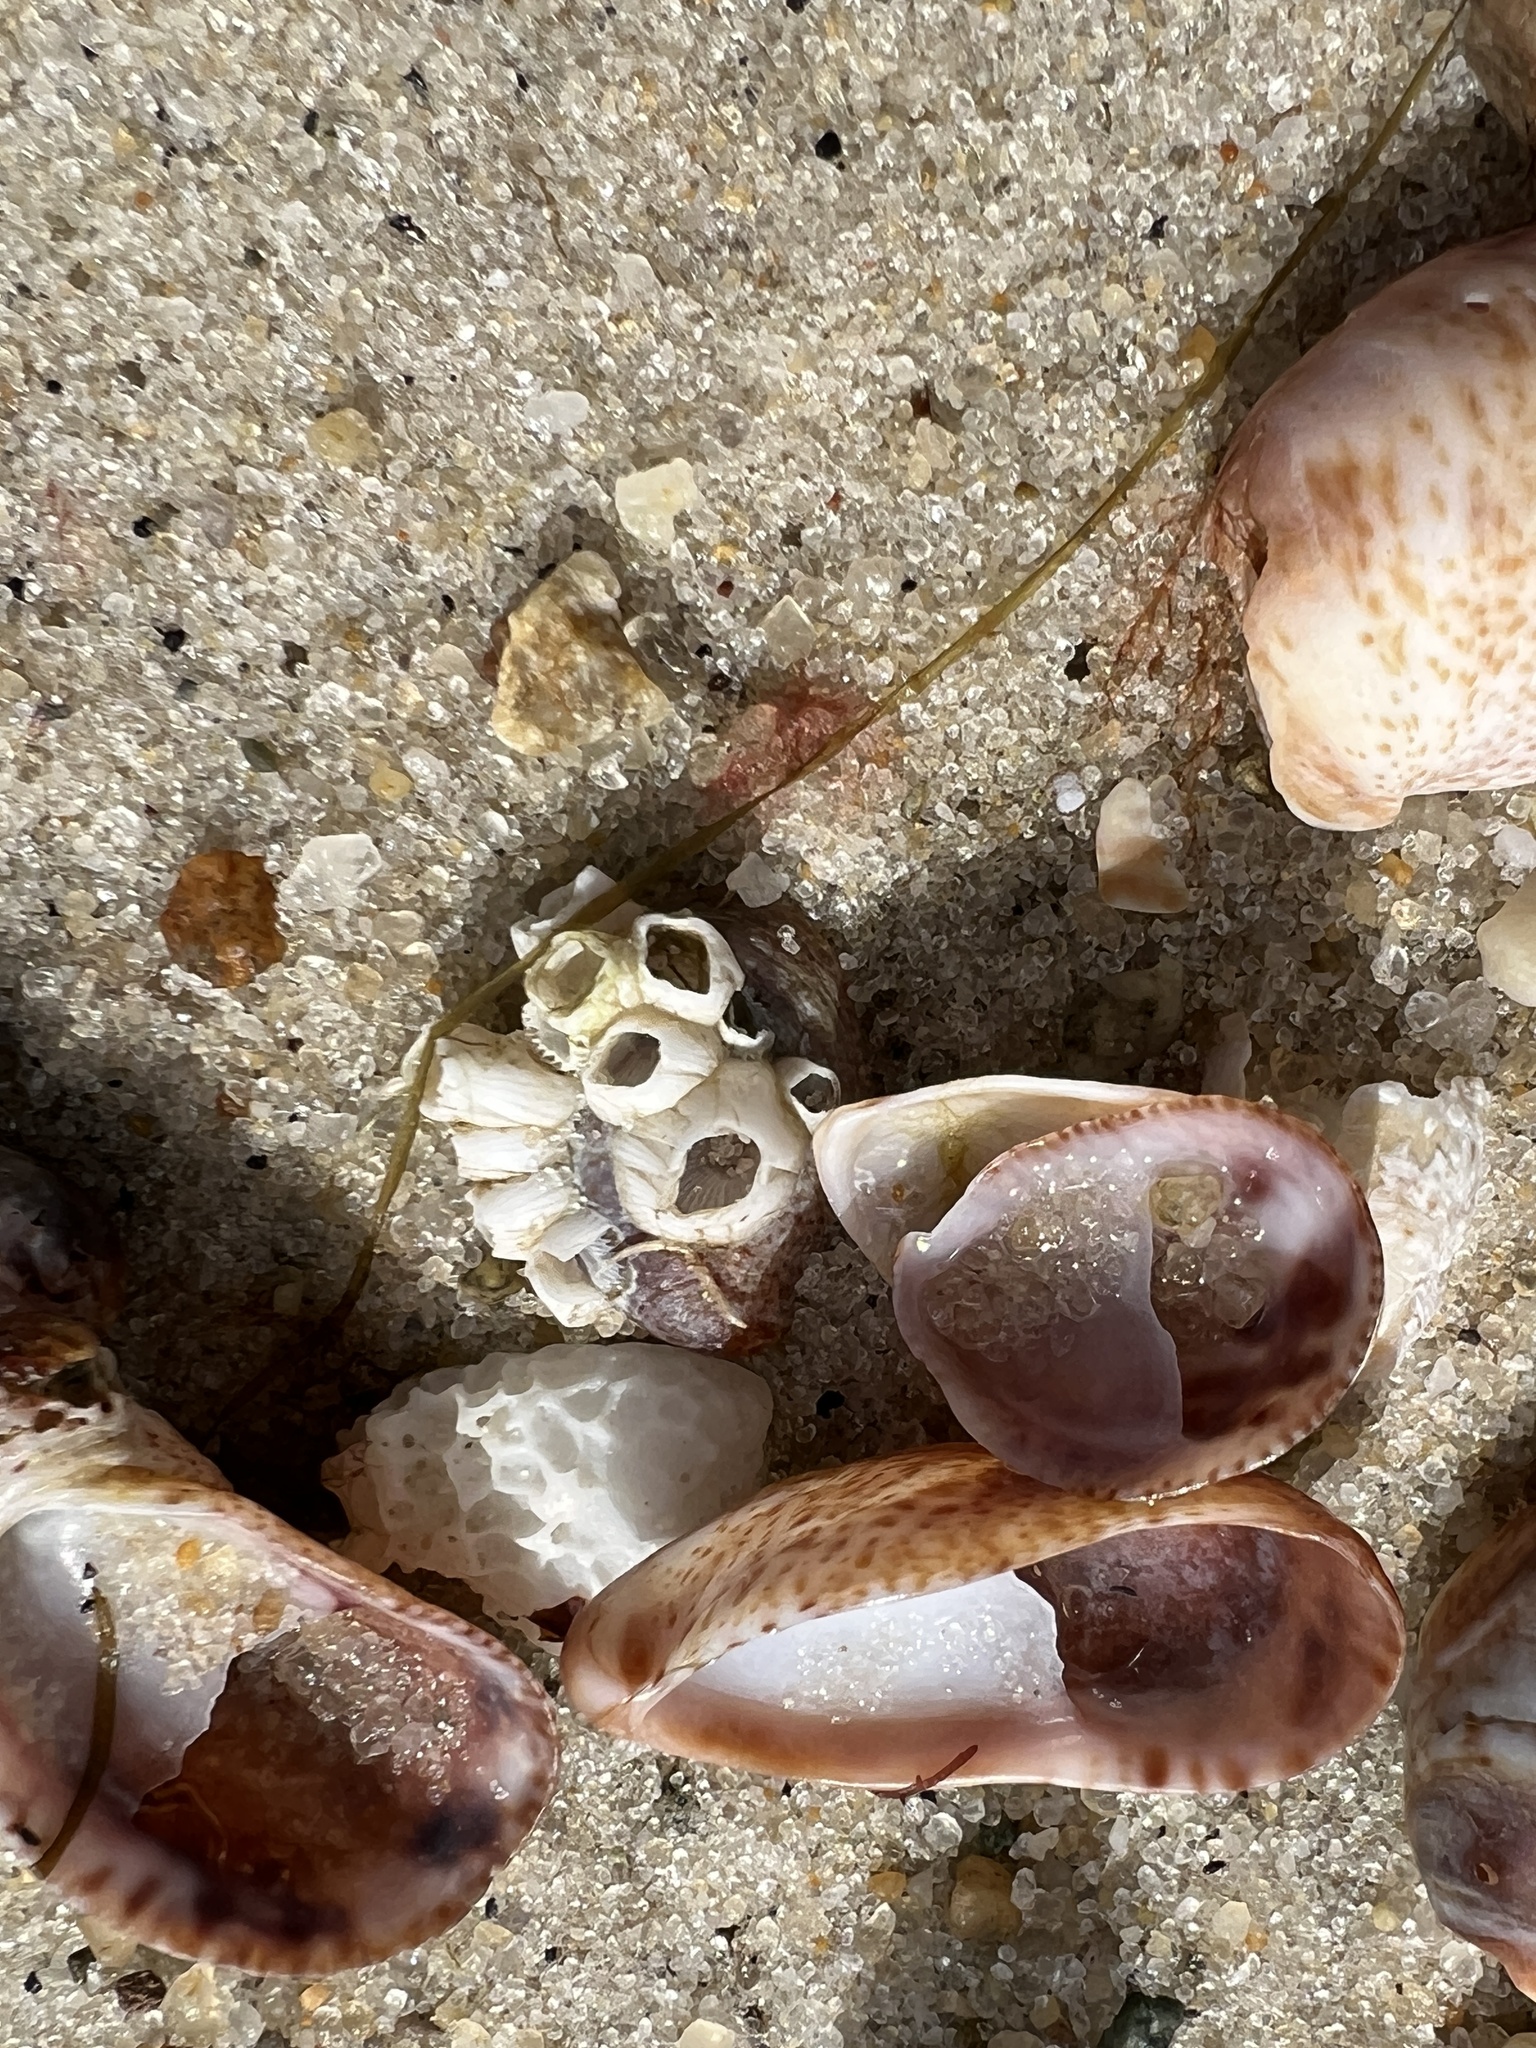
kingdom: Animalia
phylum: Mollusca
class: Gastropoda
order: Littorinimorpha
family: Calyptraeidae
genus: Crepidula
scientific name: Crepidula fornicata
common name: Slipper limpet
